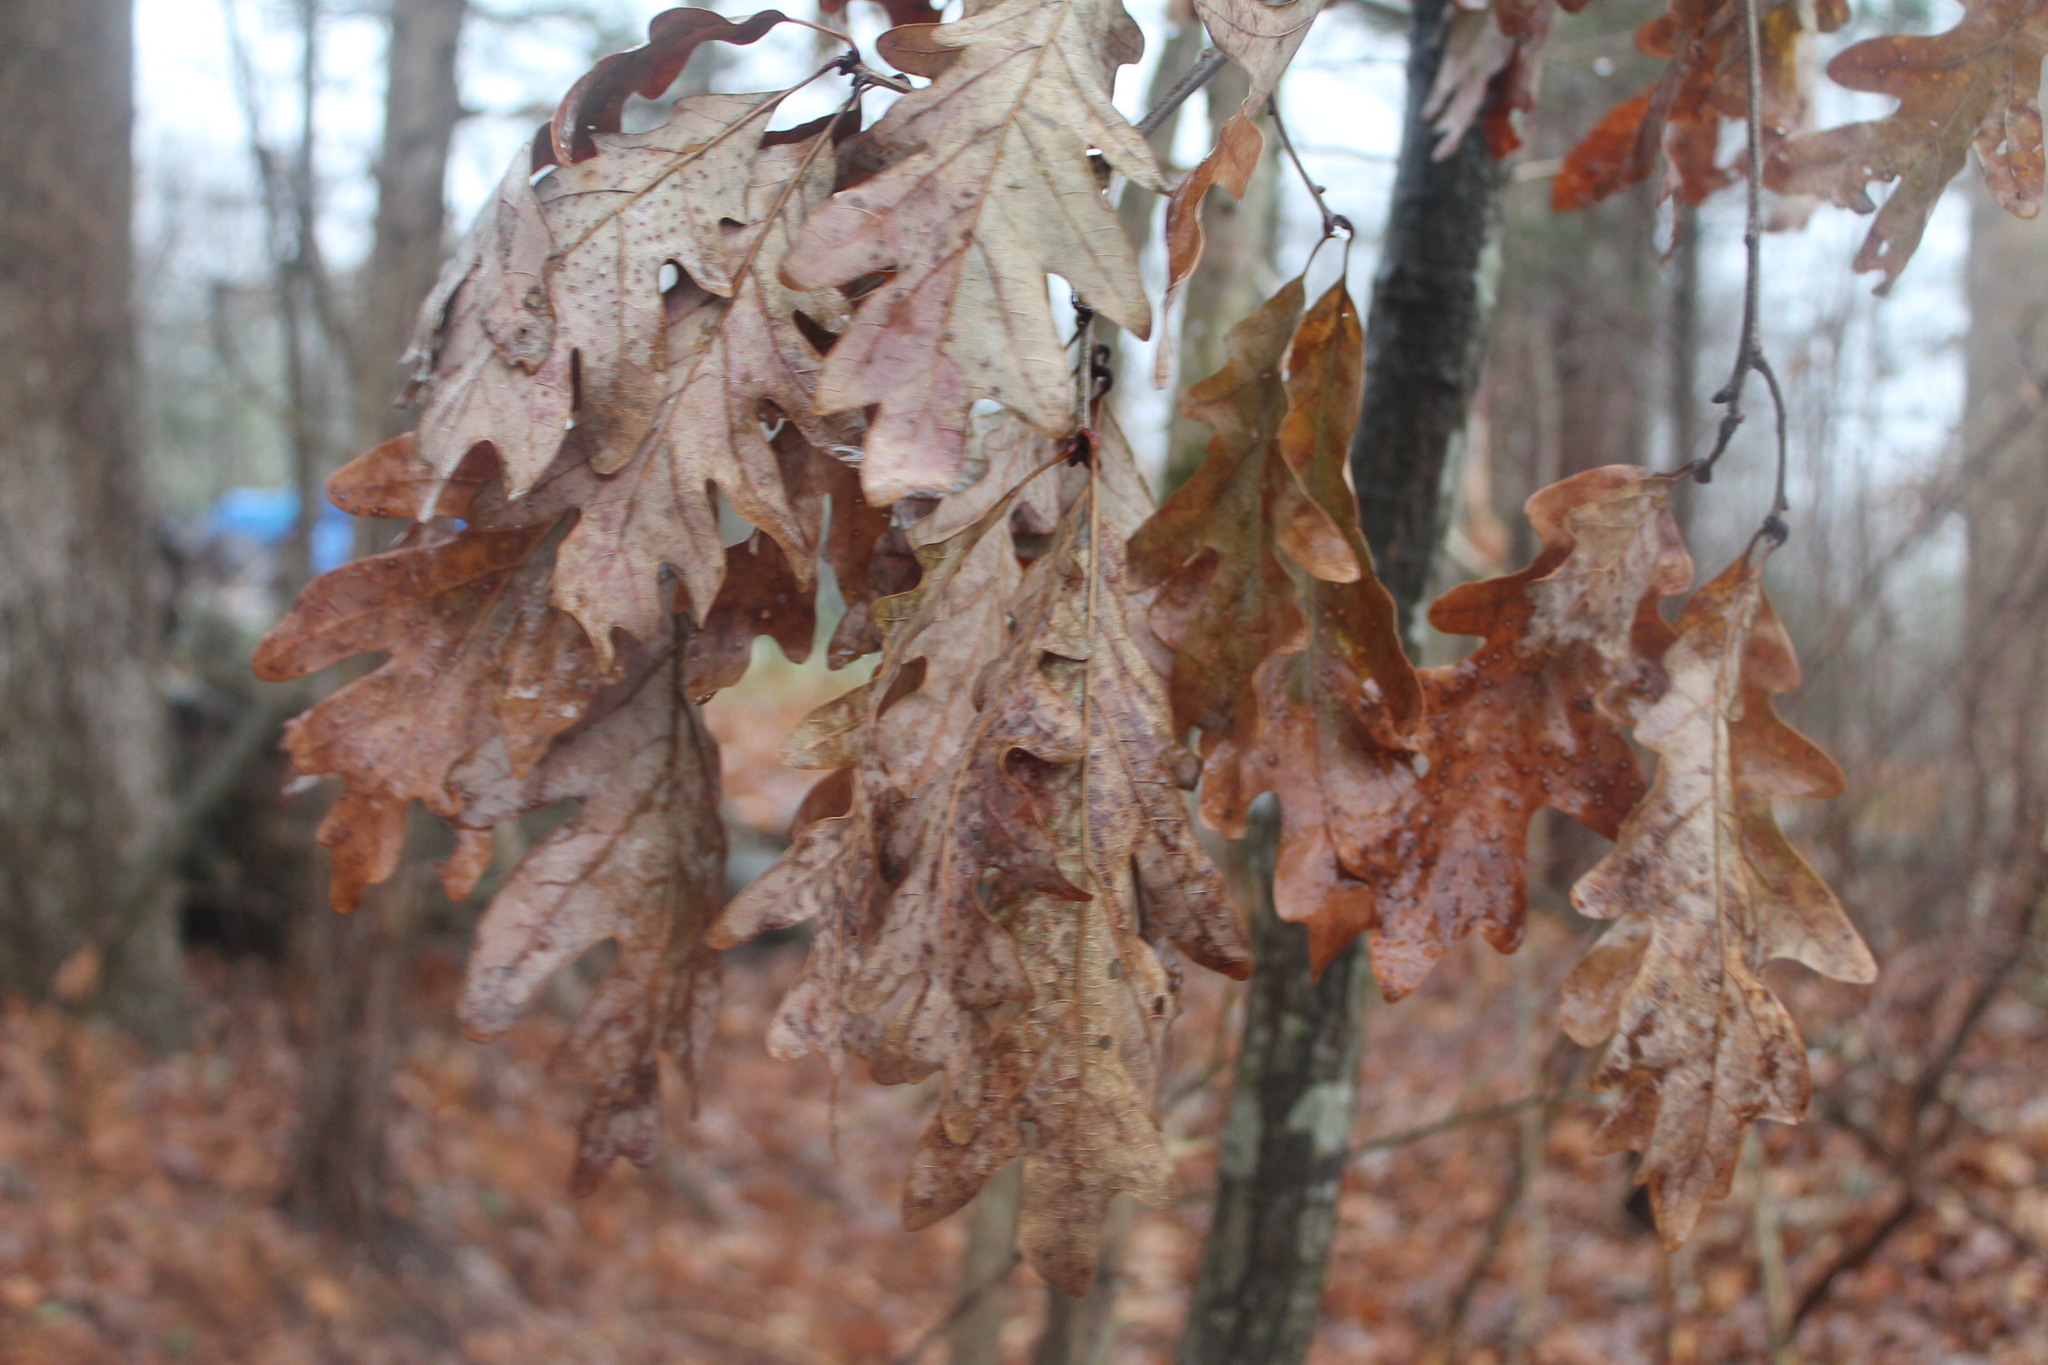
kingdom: Plantae
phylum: Tracheophyta
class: Magnoliopsida
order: Fagales
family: Fagaceae
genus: Quercus
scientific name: Quercus alba
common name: White oak
